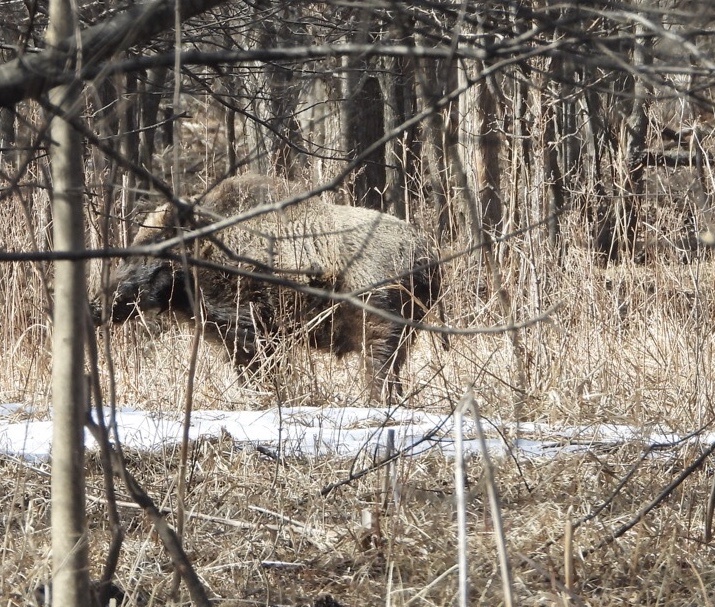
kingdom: Animalia
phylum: Chordata
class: Mammalia
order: Artiodactyla
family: Suidae
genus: Sus
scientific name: Sus scrofa
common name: Wild boar
